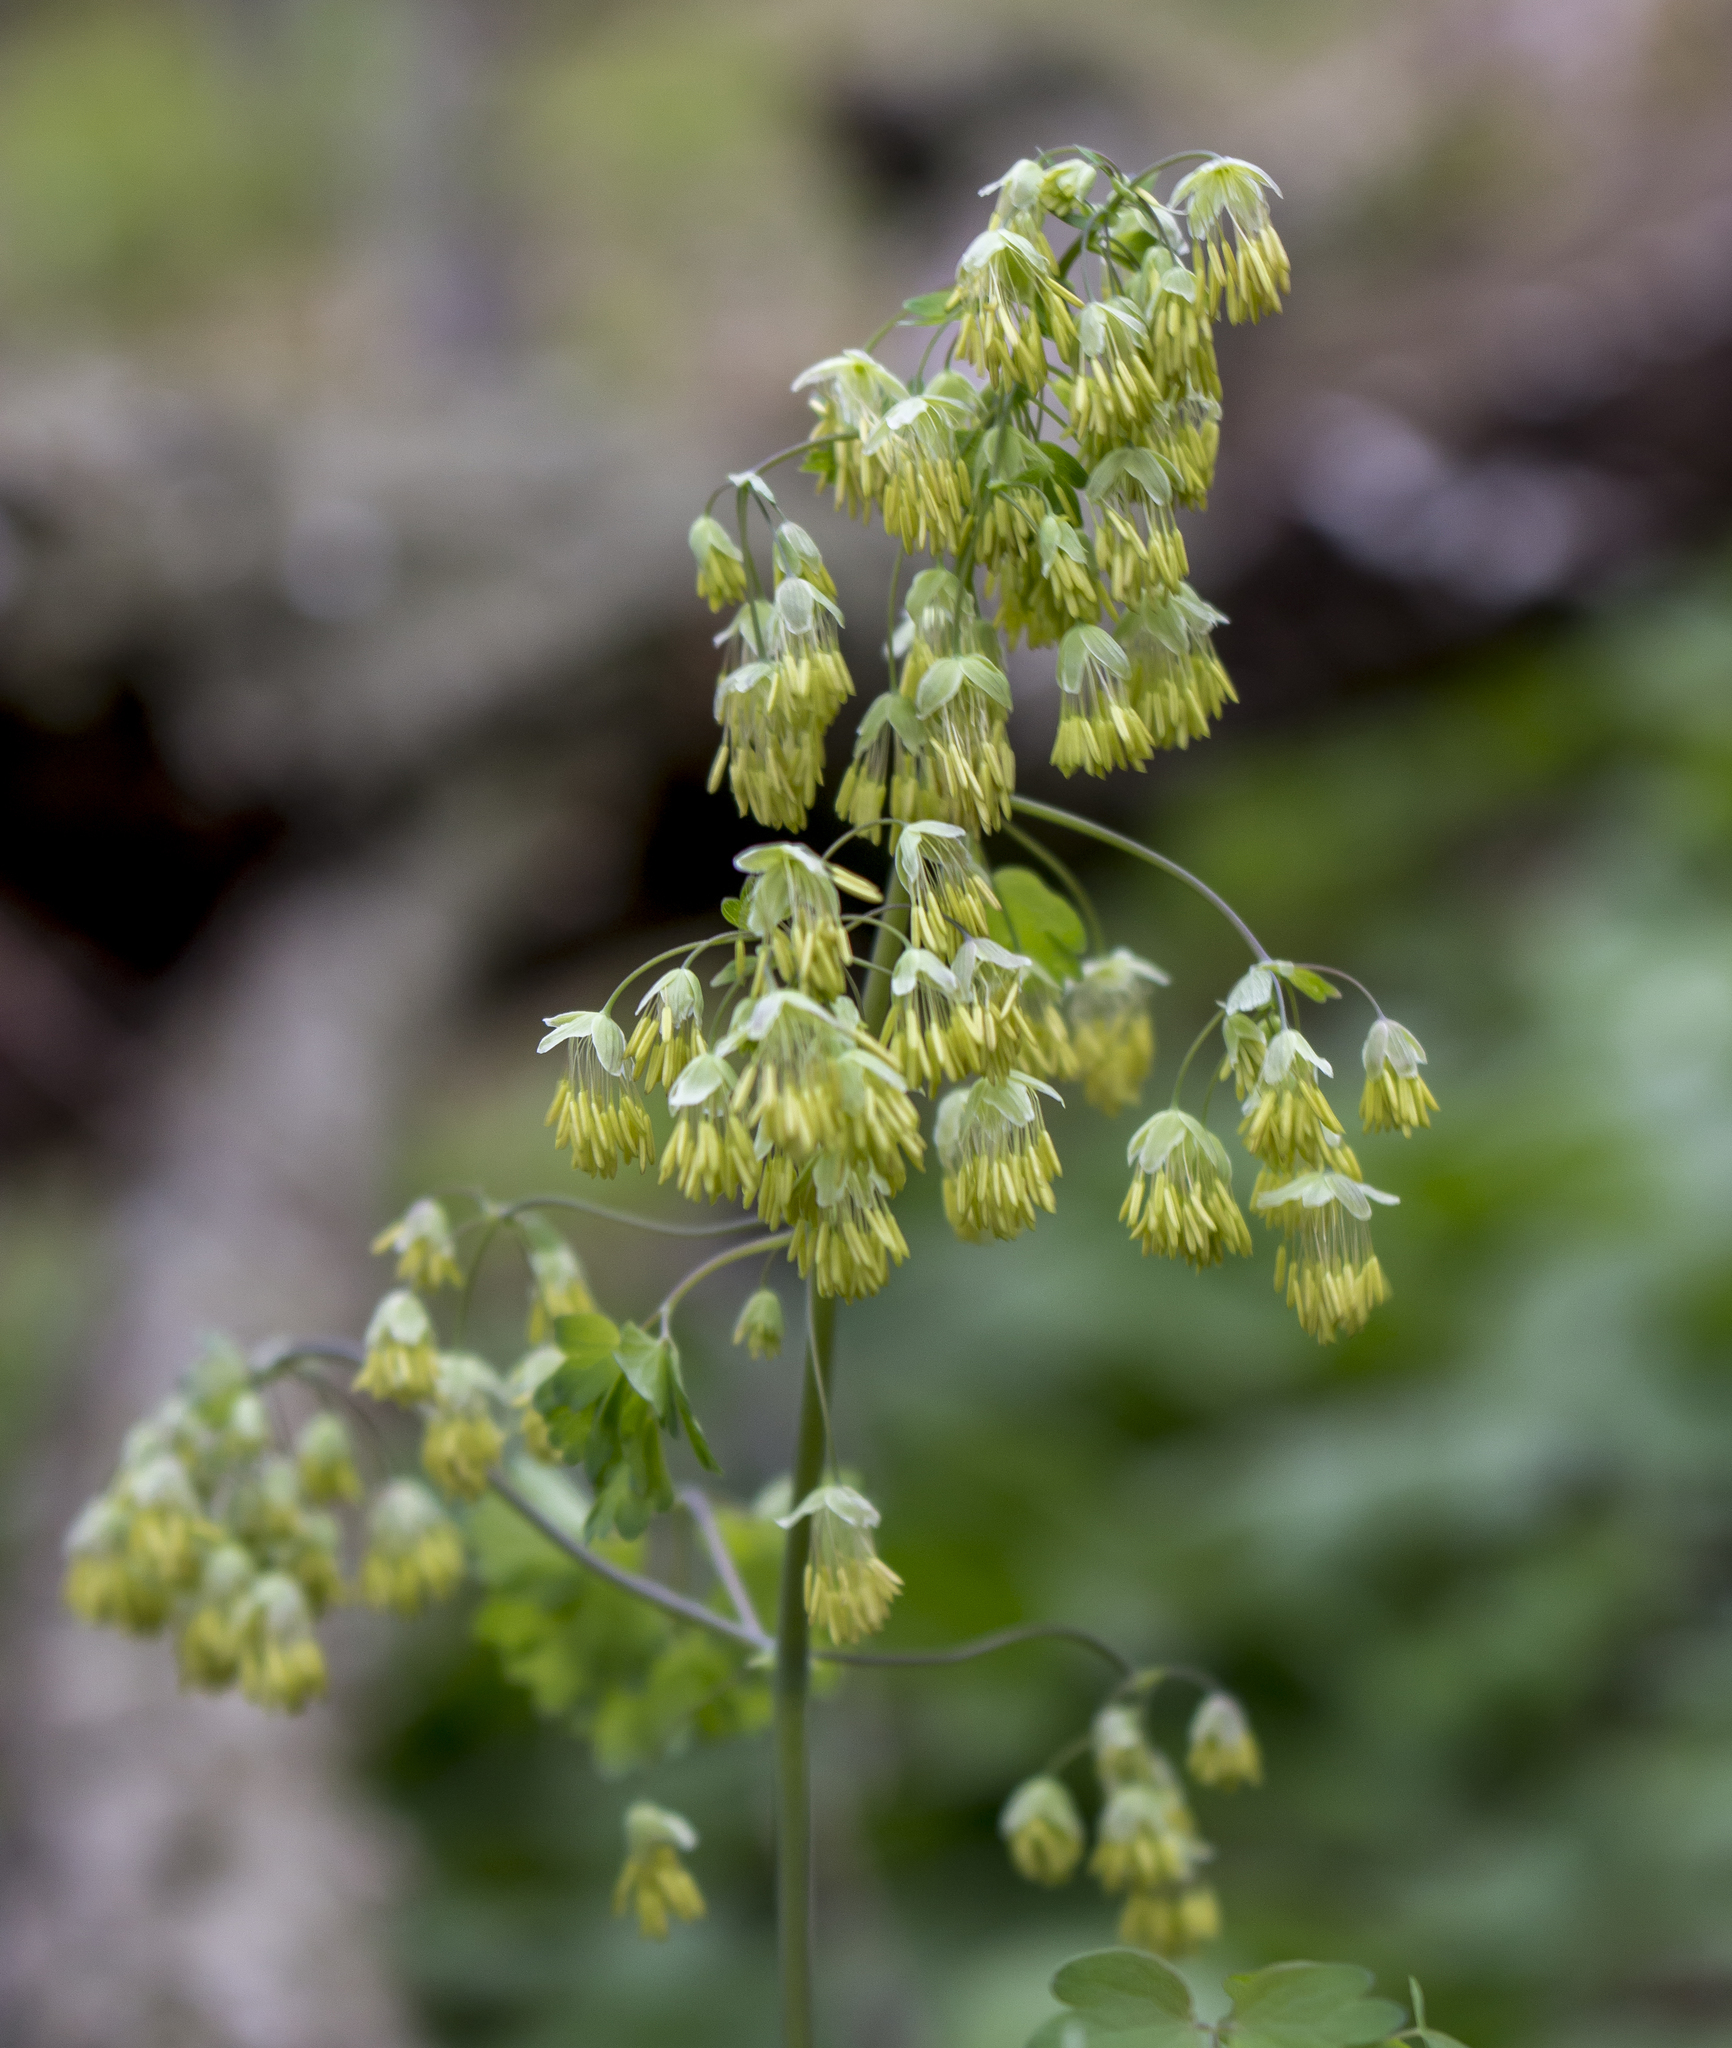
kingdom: Plantae
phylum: Tracheophyta
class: Magnoliopsida
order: Ranunculales
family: Ranunculaceae
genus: Thalictrum
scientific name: Thalictrum dioicum
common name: Early meadow-rue
